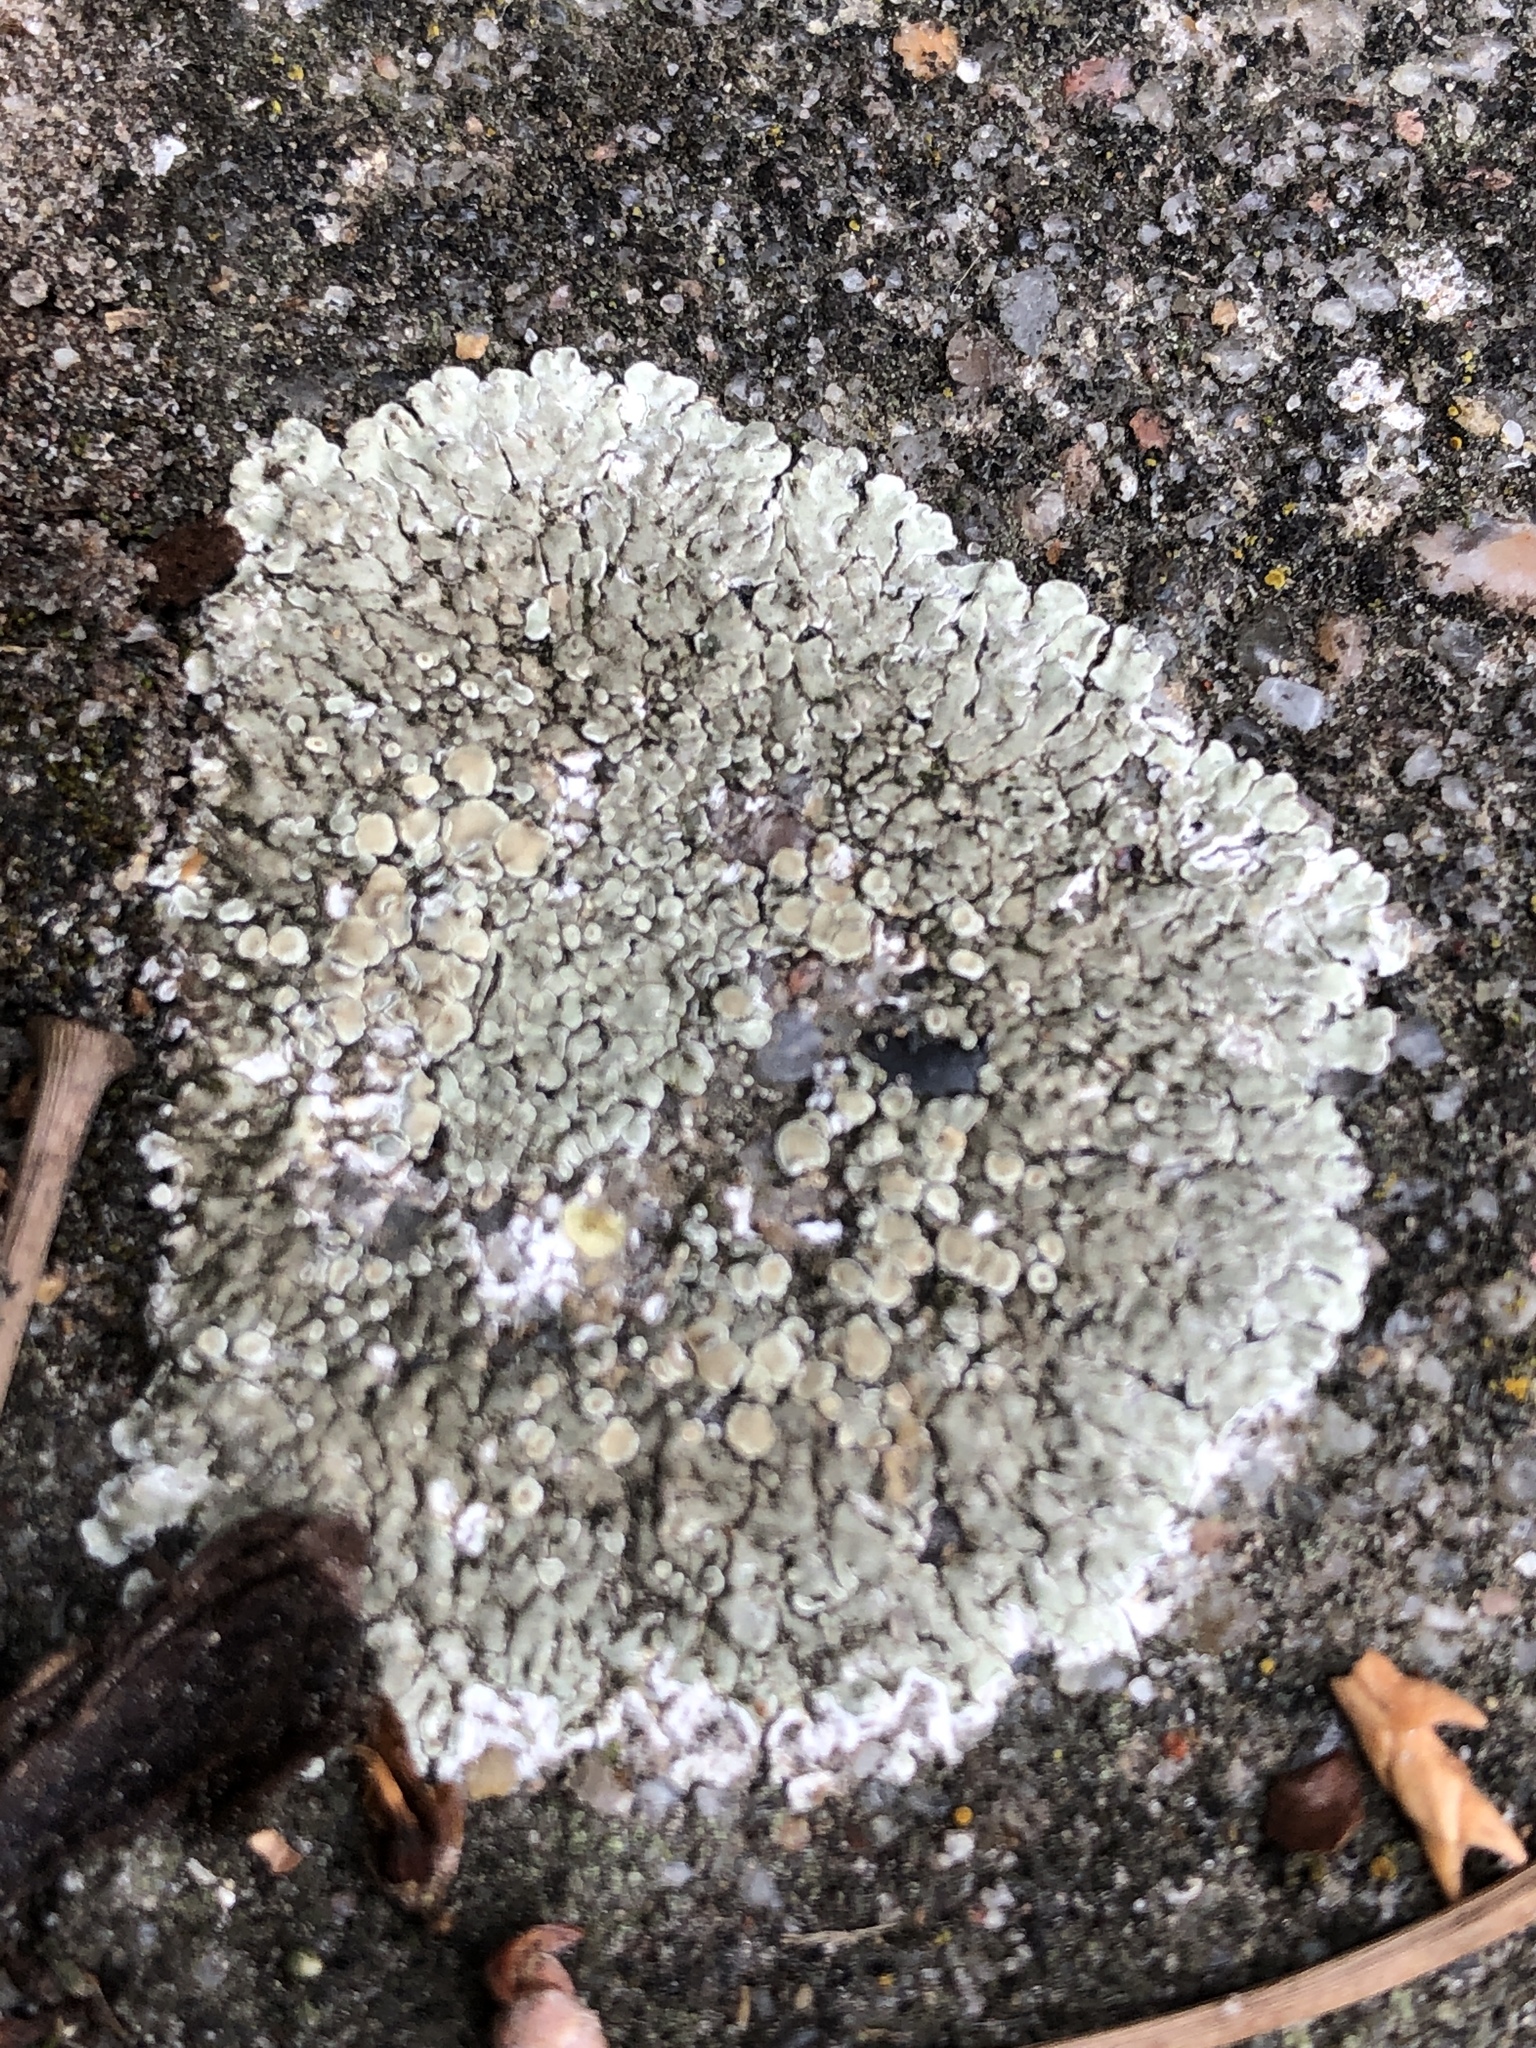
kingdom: Fungi
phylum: Ascomycota
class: Lecanoromycetes
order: Lecanorales
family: Lecanoraceae
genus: Protoparmeliopsis
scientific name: Protoparmeliopsis muralis
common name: Stonewall rim lichen
